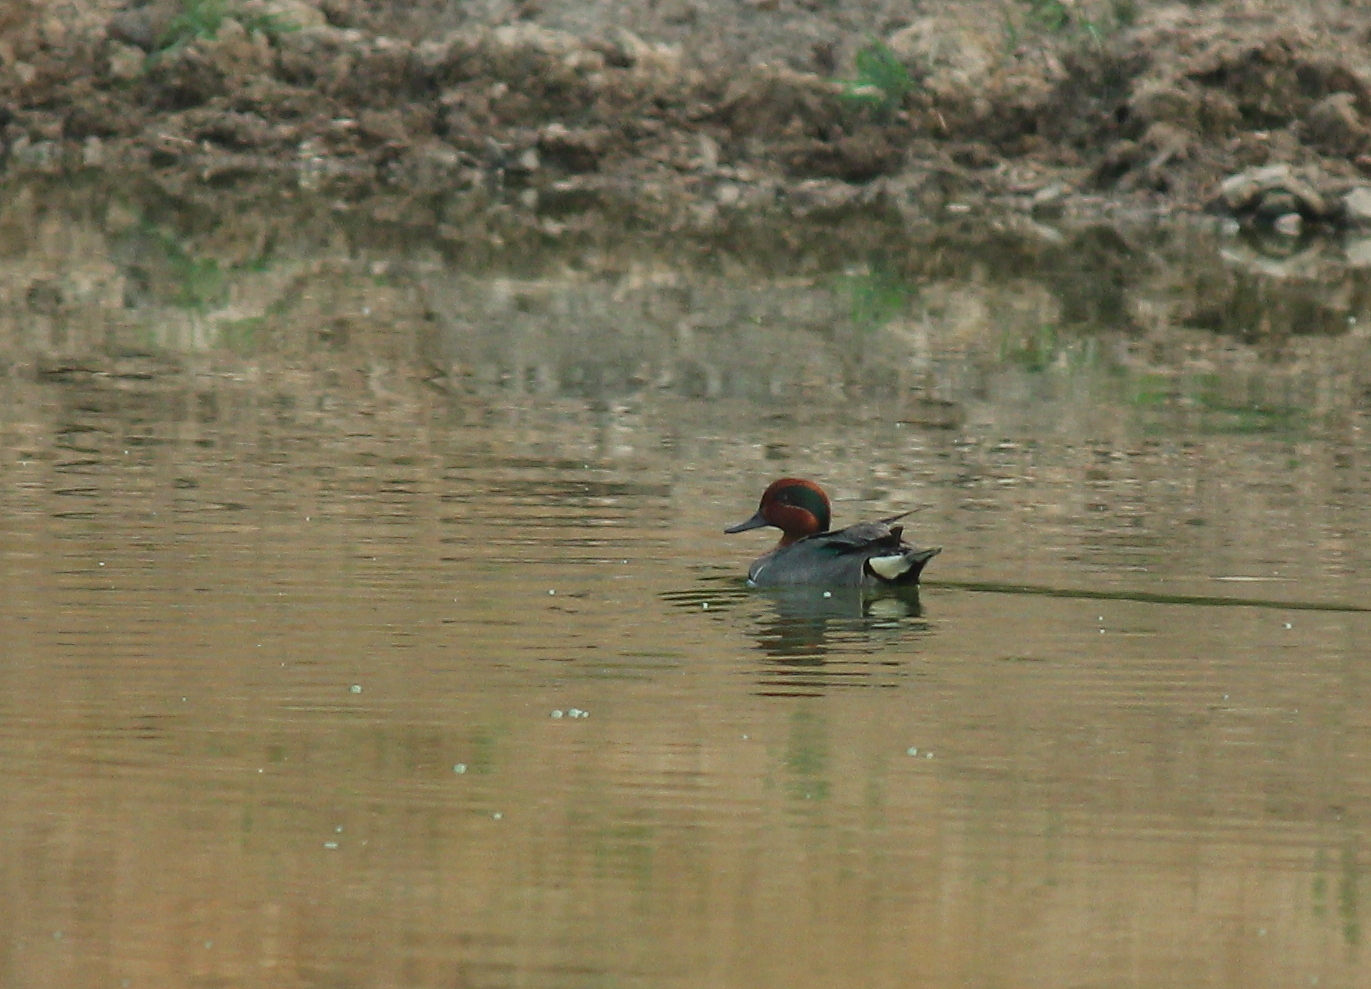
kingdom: Animalia
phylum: Chordata
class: Aves
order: Anseriformes
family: Anatidae
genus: Anas
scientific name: Anas crecca
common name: Eurasian teal
